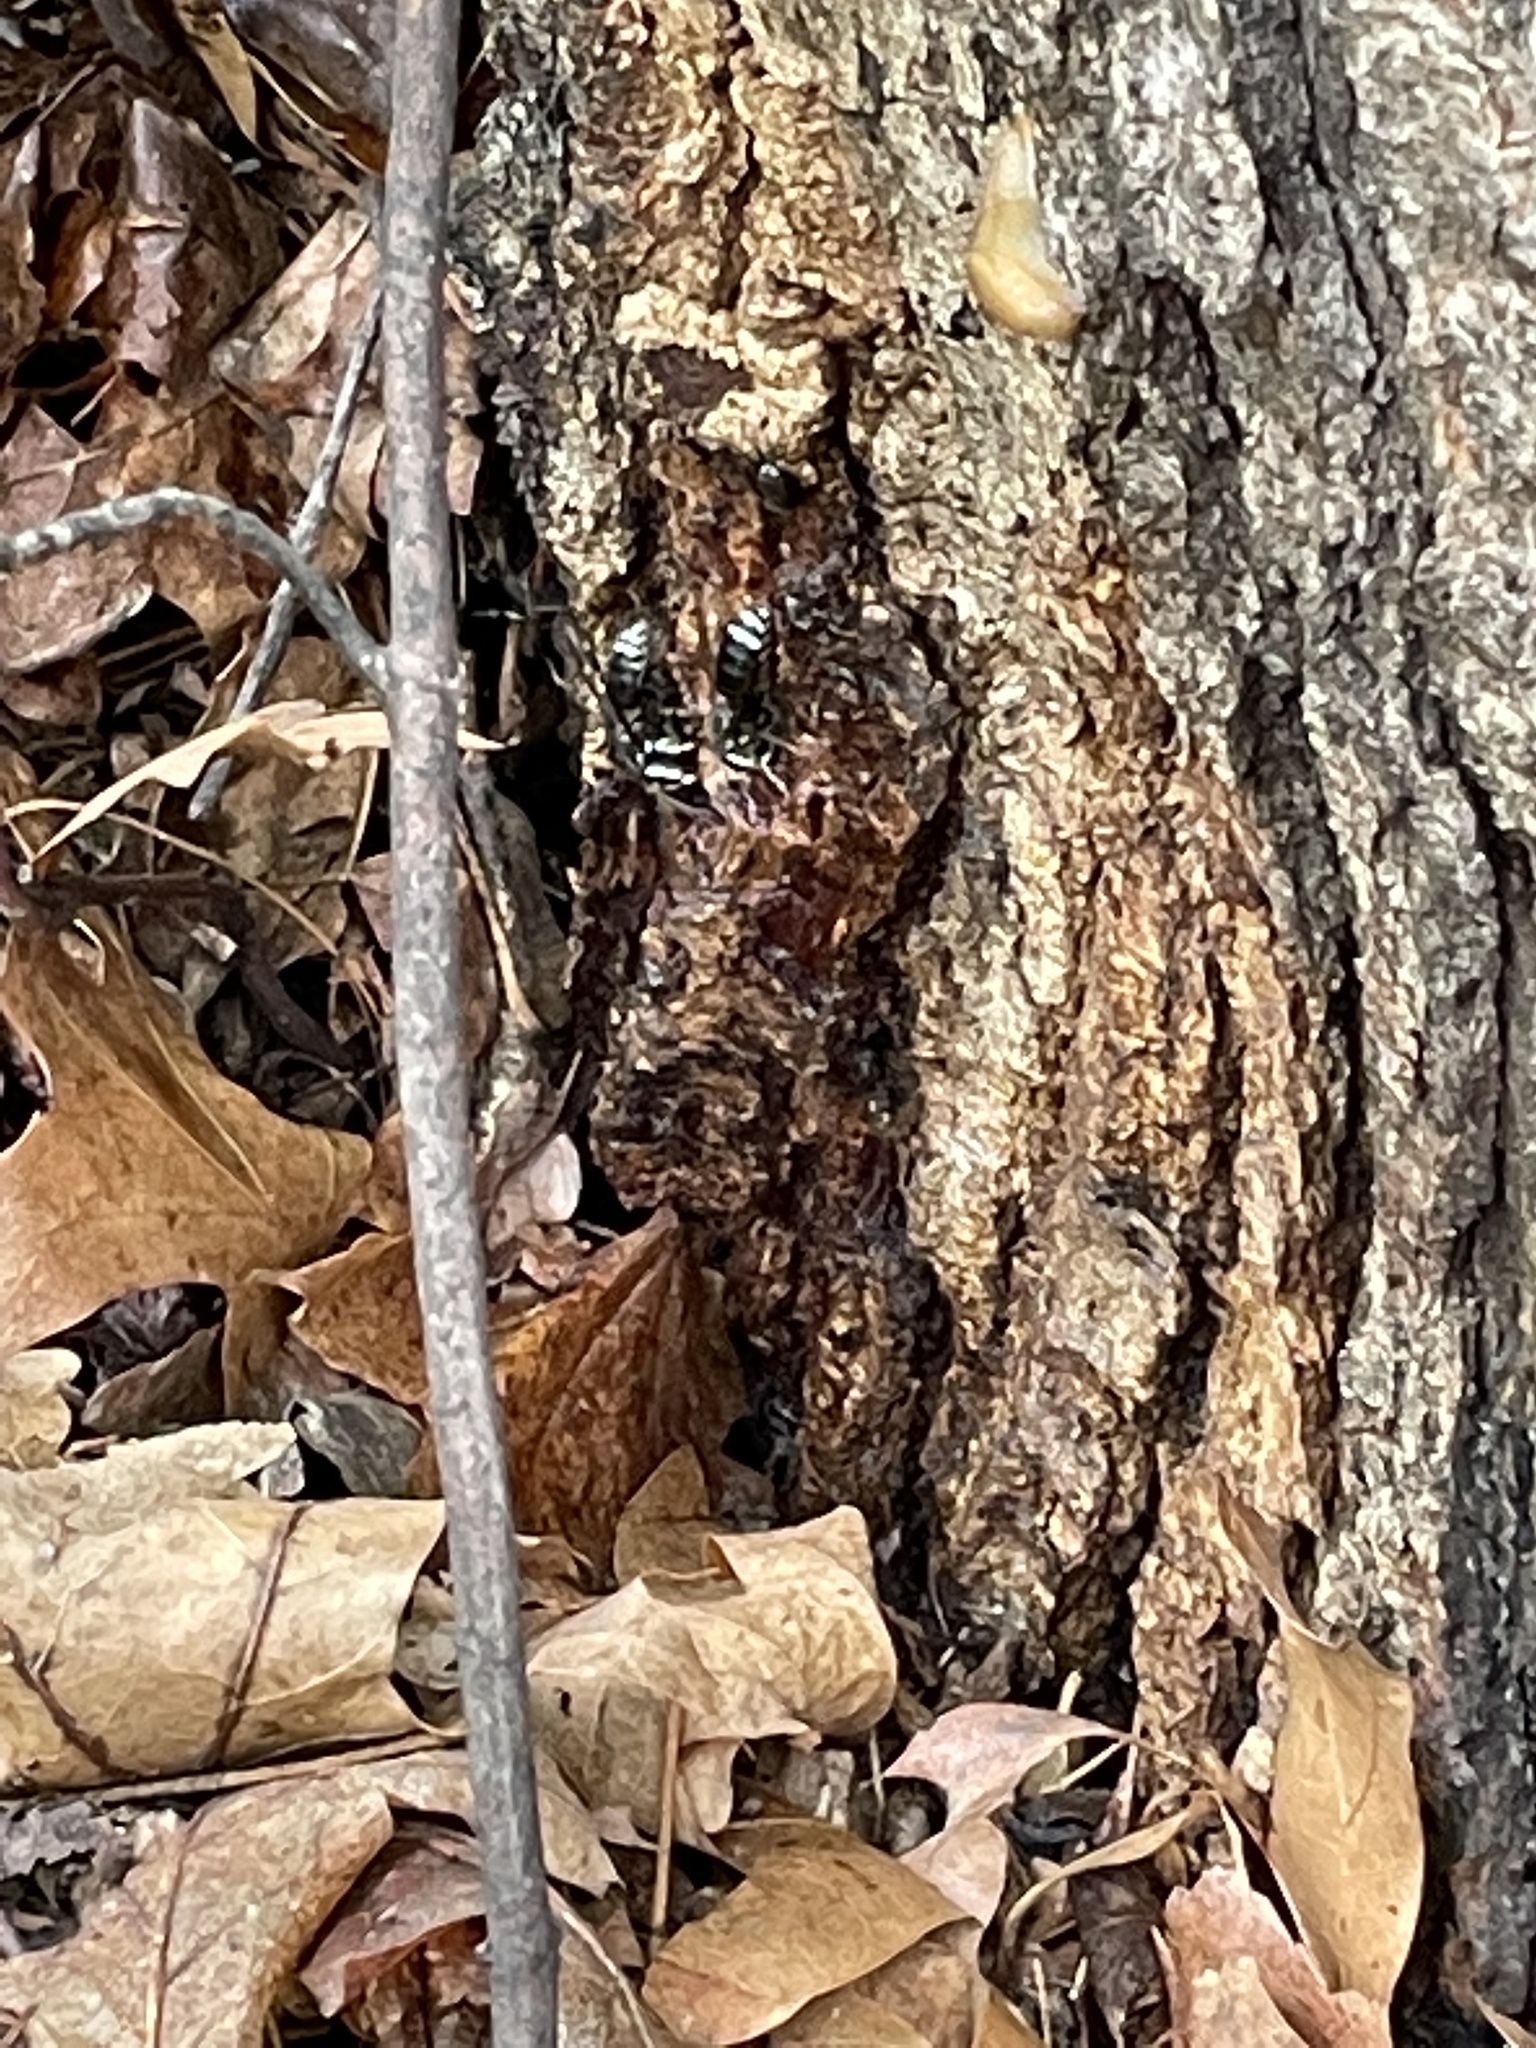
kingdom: Animalia
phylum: Arthropoda
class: Insecta
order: Hymenoptera
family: Vespidae
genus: Dolichovespula
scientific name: Dolichovespula maculata
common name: Bald-faced hornet
